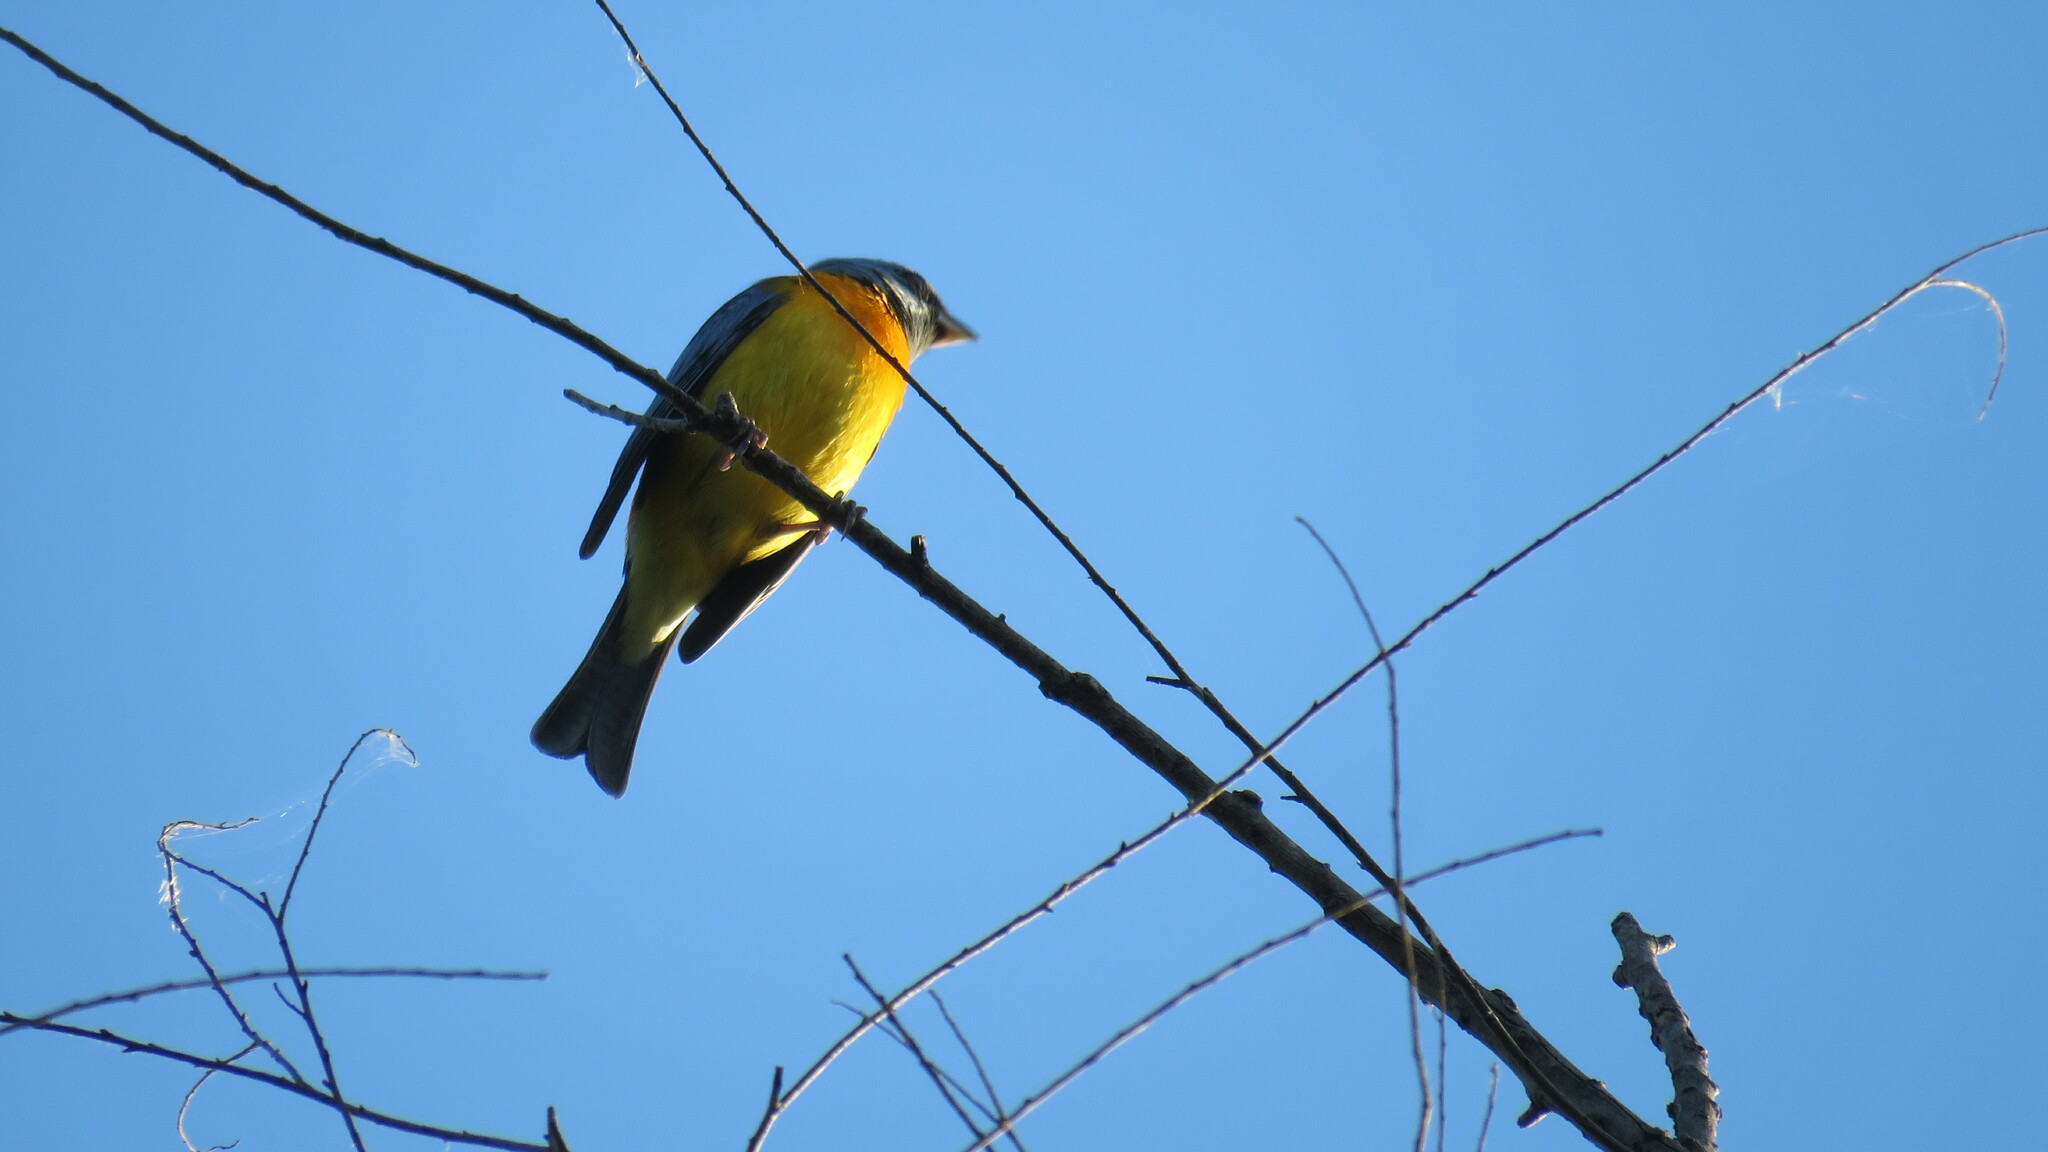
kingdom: Animalia
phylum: Chordata
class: Aves
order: Passeriformes
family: Thraupidae
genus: Rauenia
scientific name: Rauenia bonariensis
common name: Blue-and-yellow tanager
